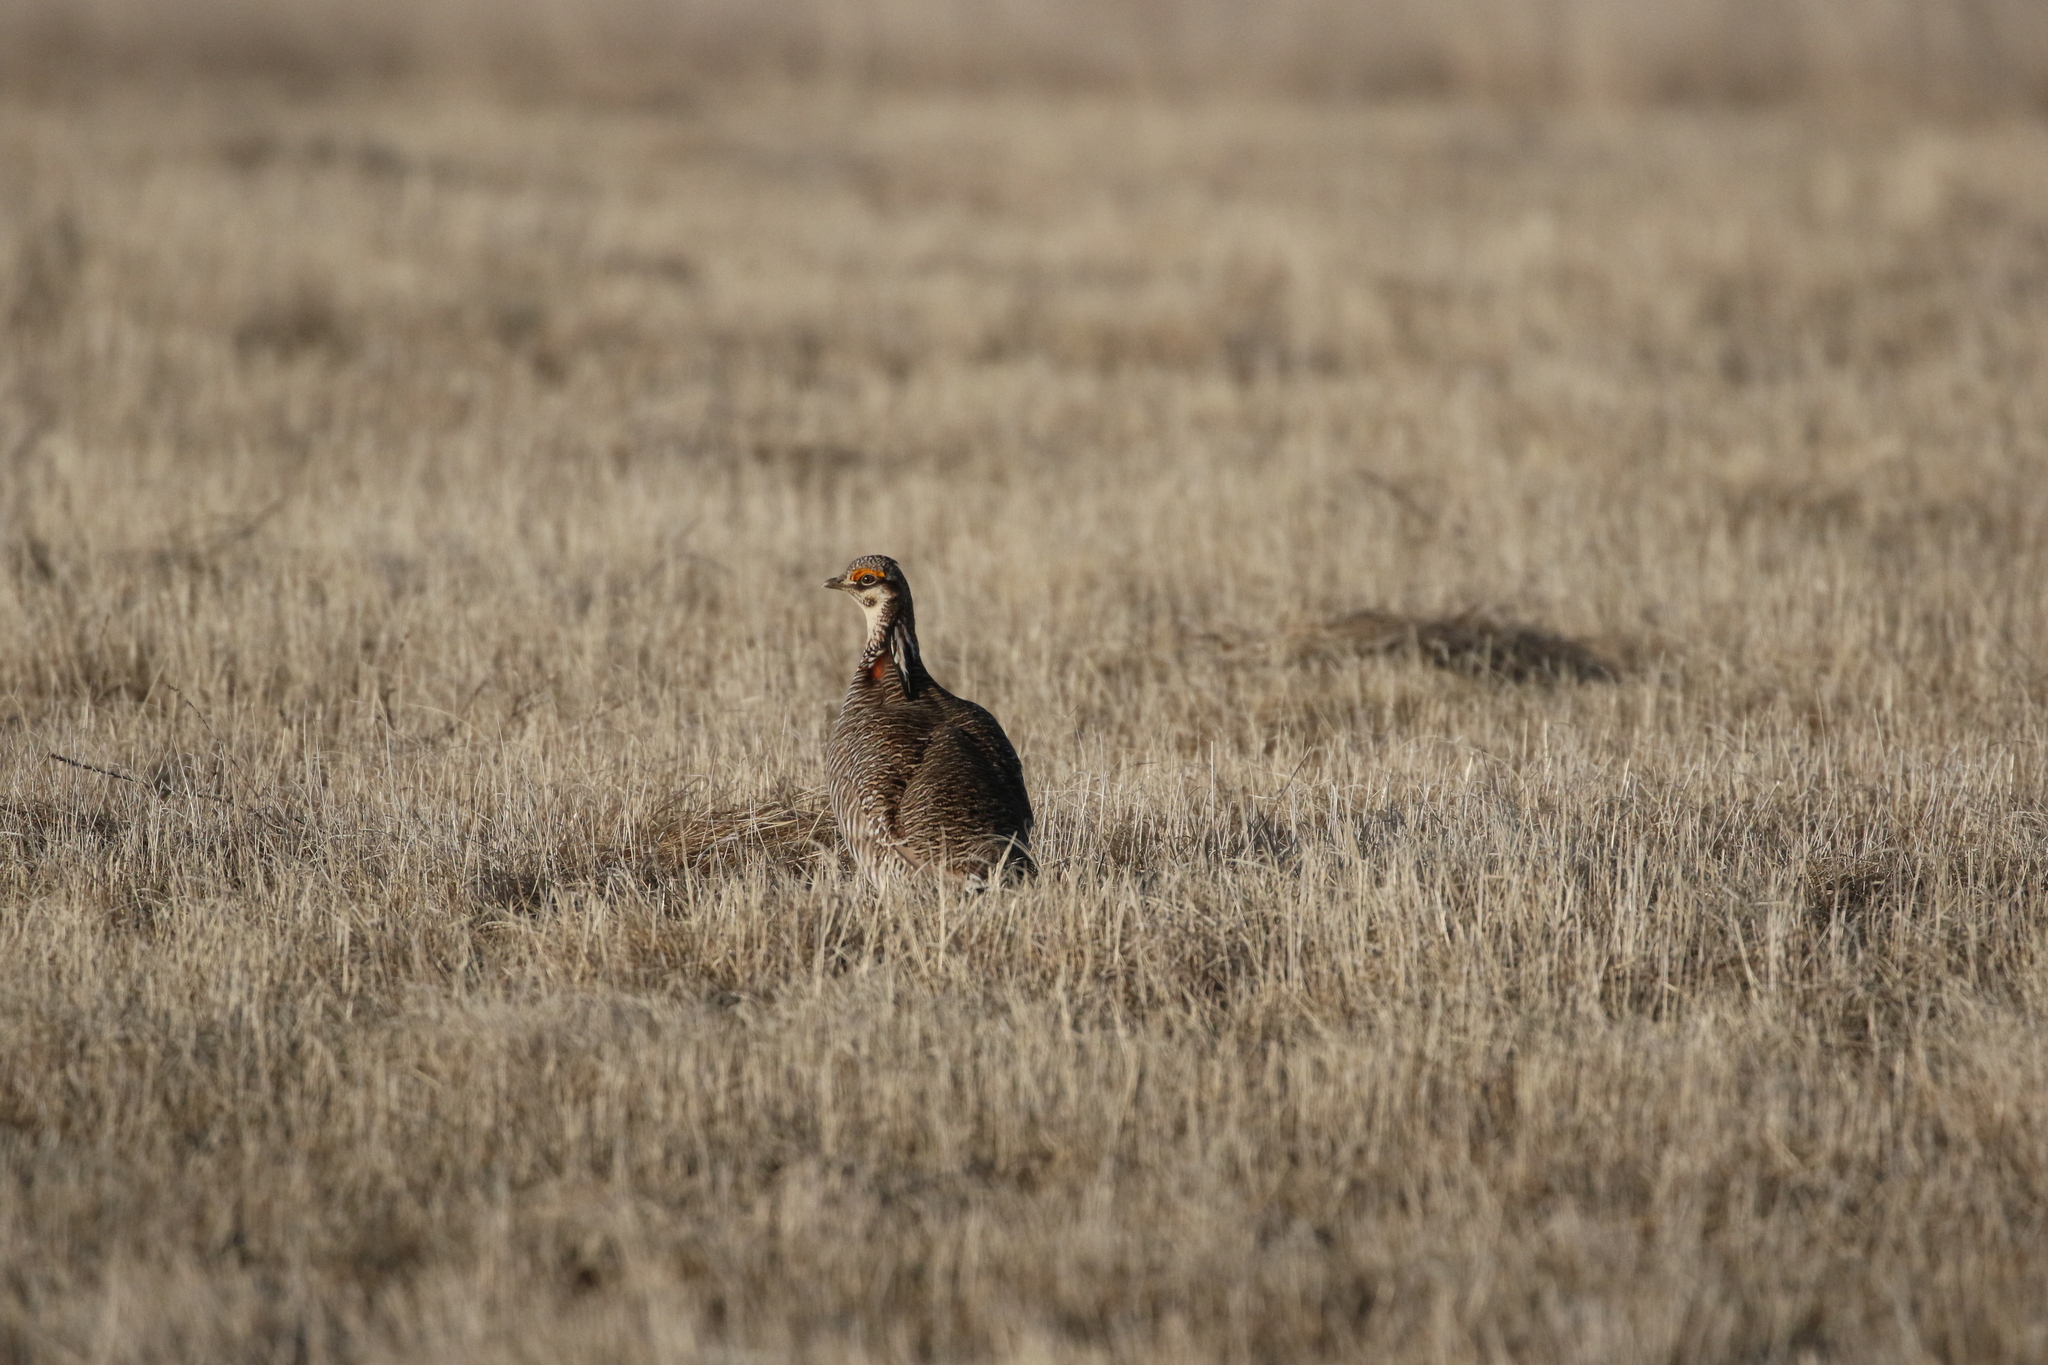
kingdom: Animalia
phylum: Chordata
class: Aves
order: Galliformes
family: Phasianidae
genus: Tympanuchus
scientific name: Tympanuchus pallidicinctus
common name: Lesser prairie chicken
